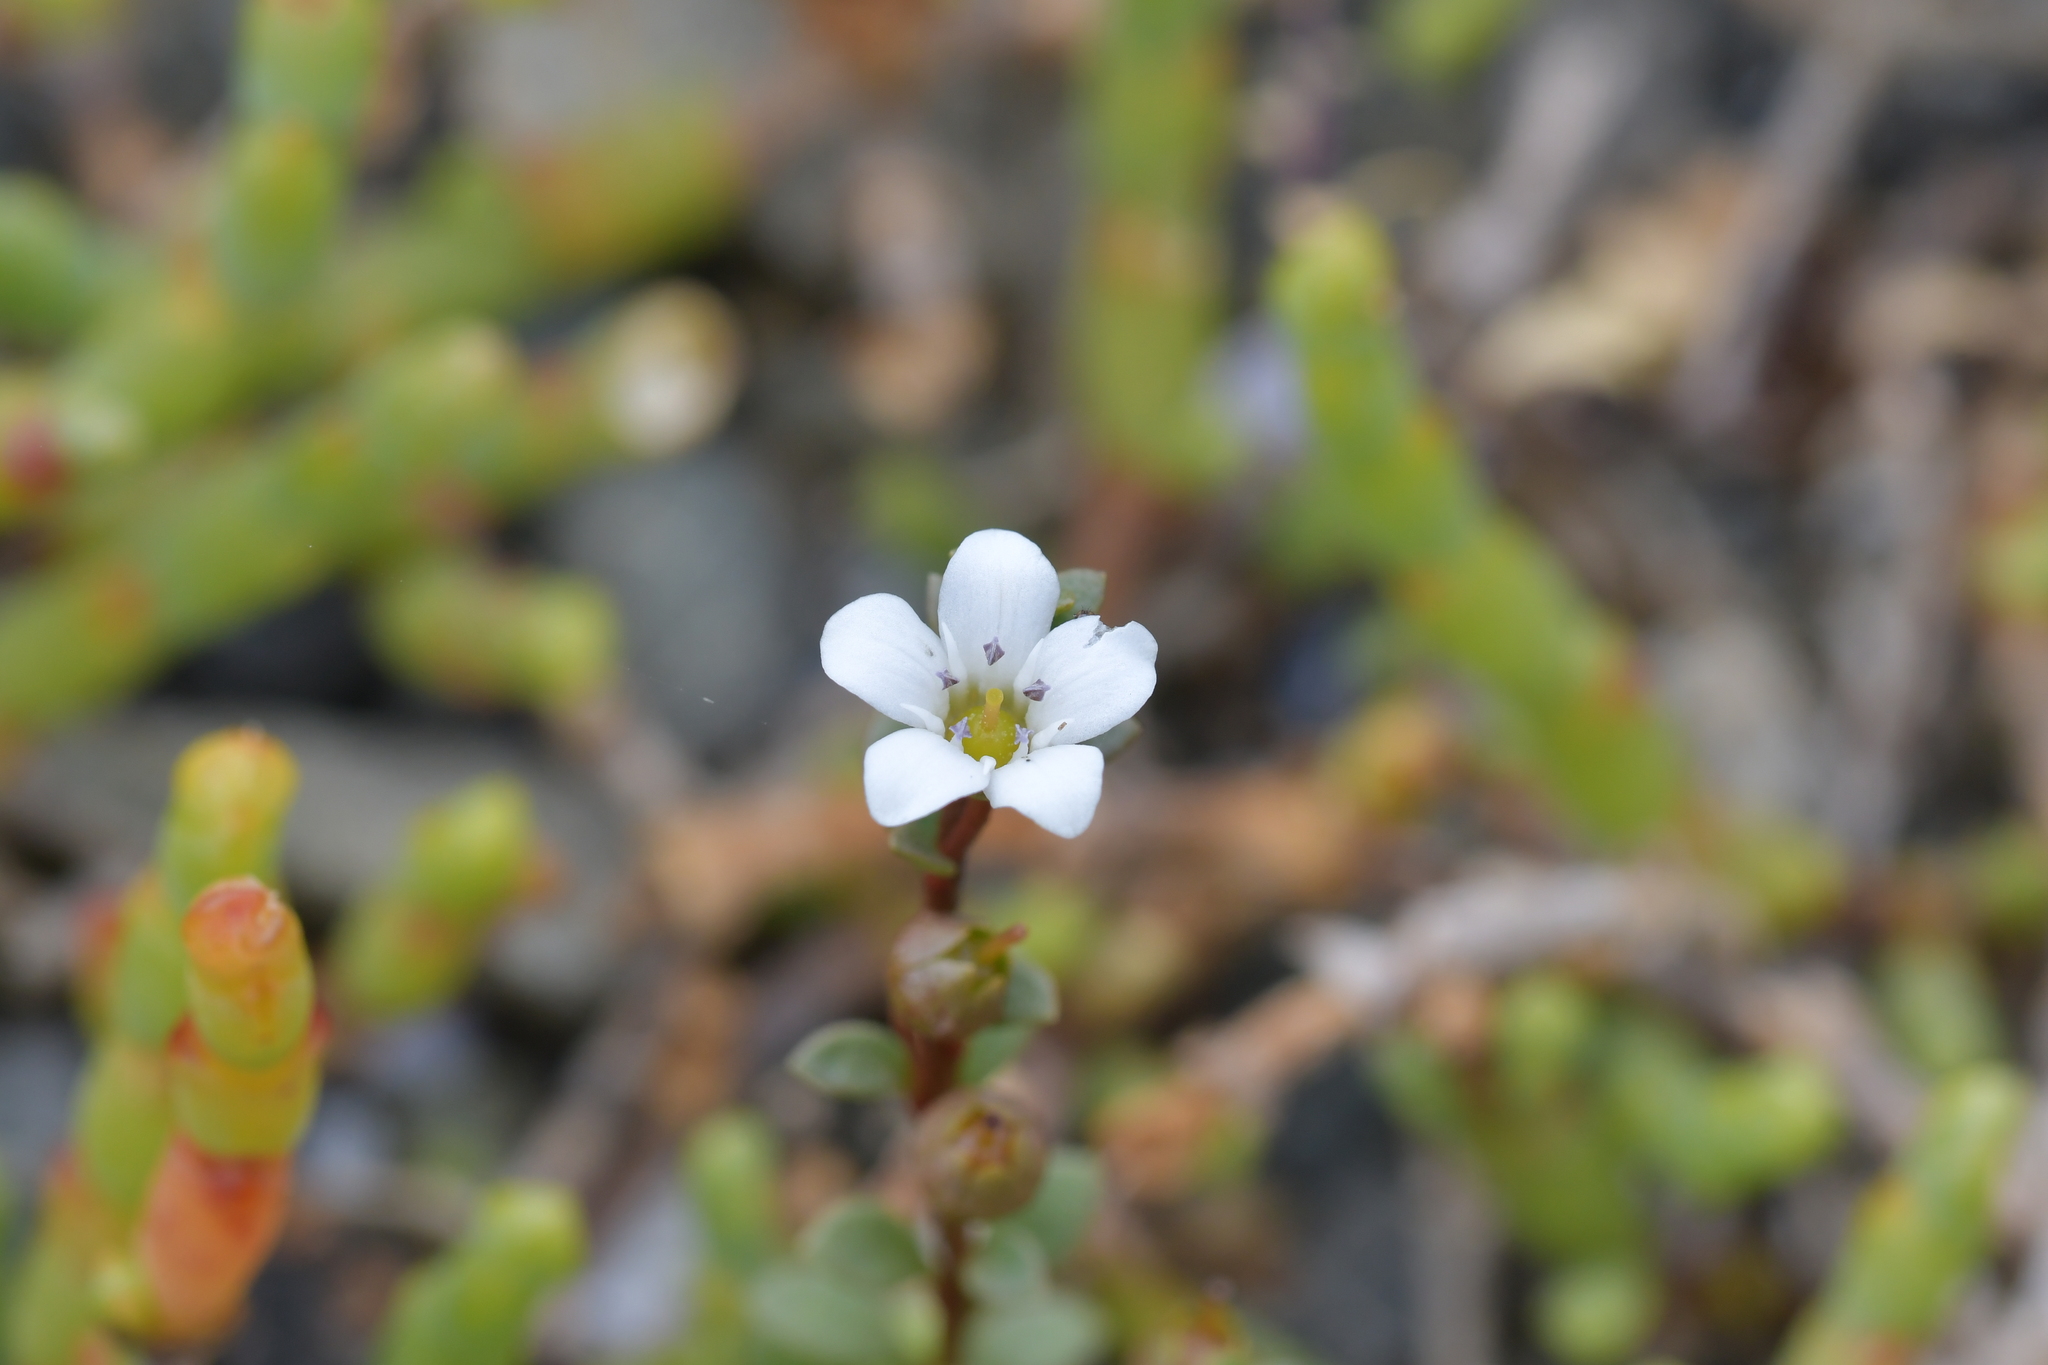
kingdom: Plantae
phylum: Tracheophyta
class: Magnoliopsida
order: Ericales
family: Primulaceae
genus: Samolus
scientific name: Samolus repens
